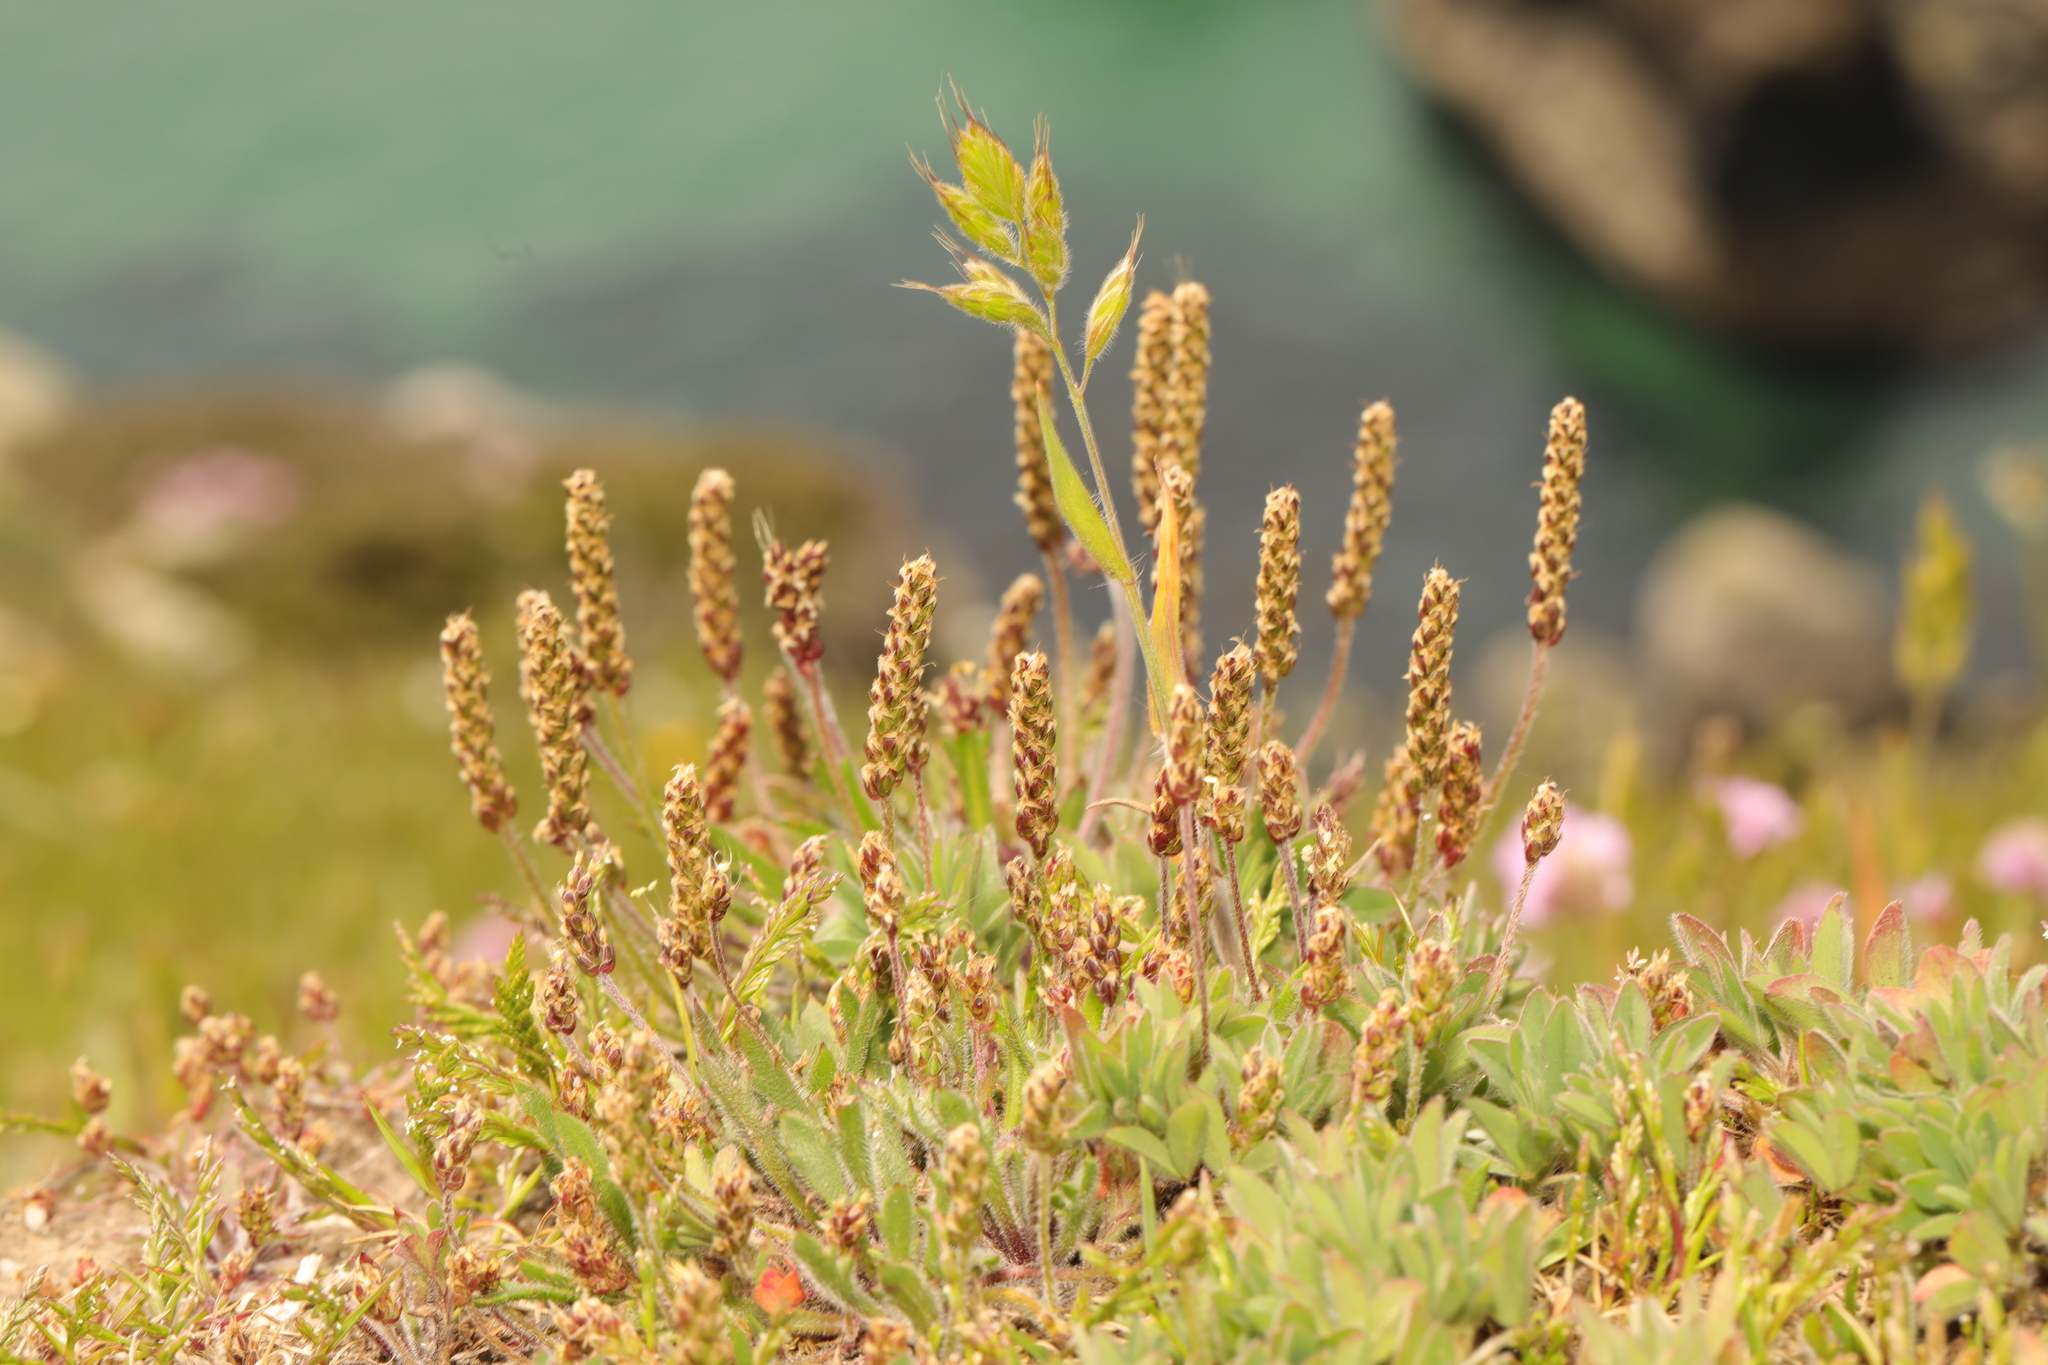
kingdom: Plantae
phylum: Tracheophyta
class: Magnoliopsida
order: Lamiales
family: Plantaginaceae
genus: Plantago
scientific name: Plantago maritima
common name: Sea plantain
